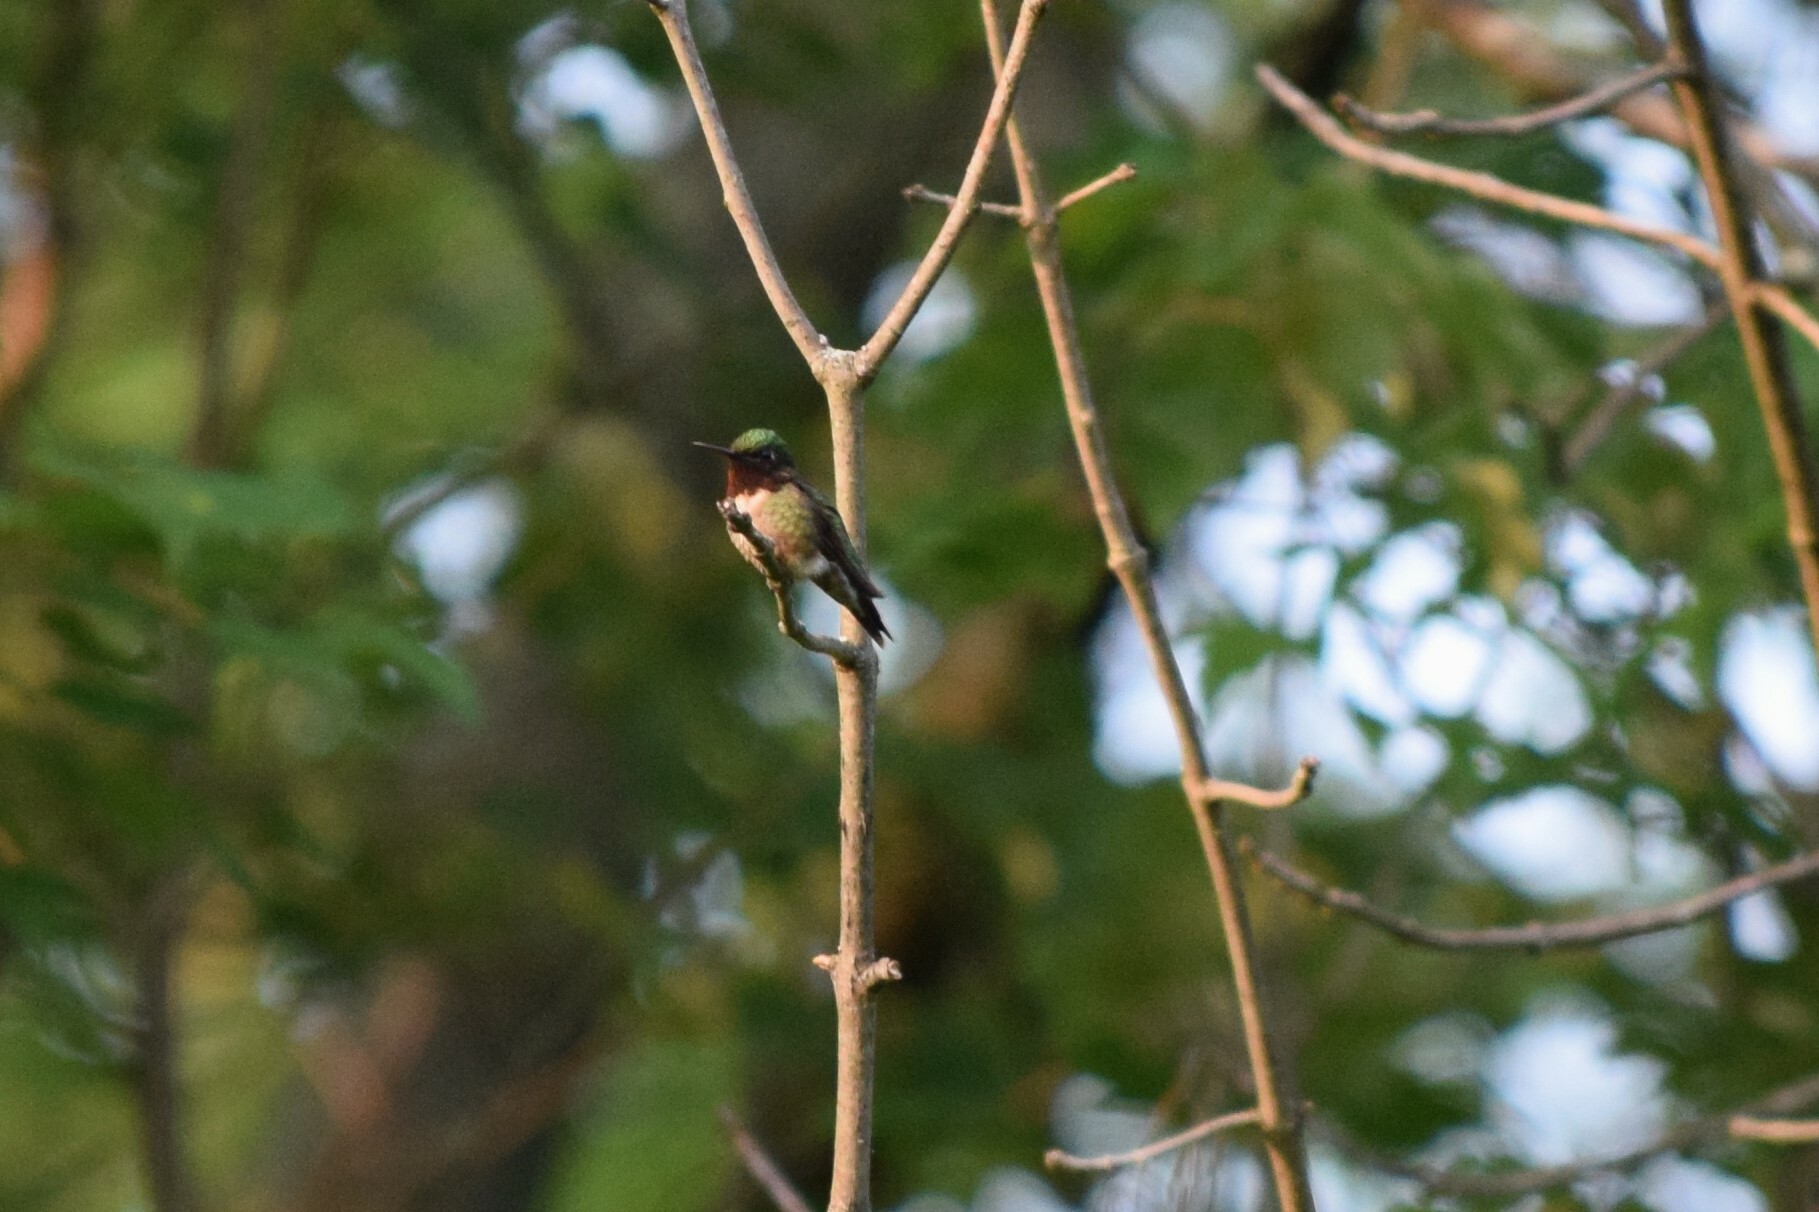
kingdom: Animalia
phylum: Chordata
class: Aves
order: Apodiformes
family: Trochilidae
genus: Archilochus
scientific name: Archilochus colubris
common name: Ruby-throated hummingbird
